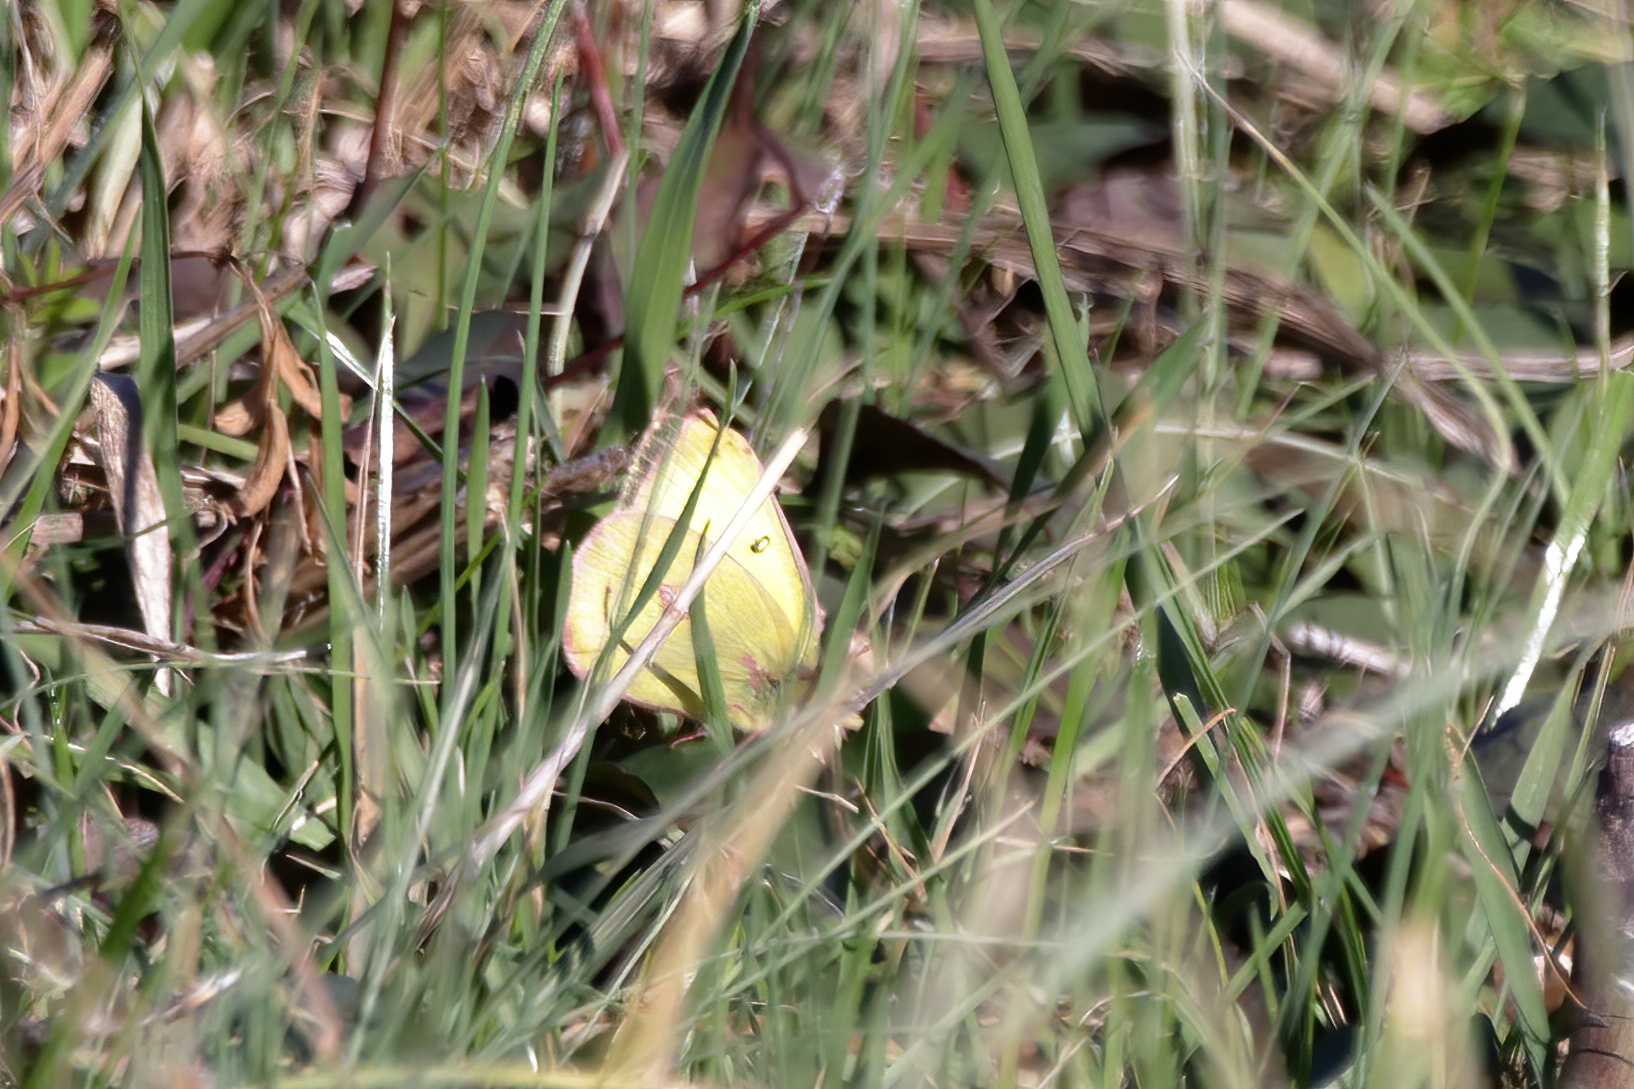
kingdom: Animalia
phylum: Arthropoda
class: Insecta
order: Lepidoptera
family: Pieridae
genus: Colias
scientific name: Colias eurytheme
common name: Alfalfa butterfly
